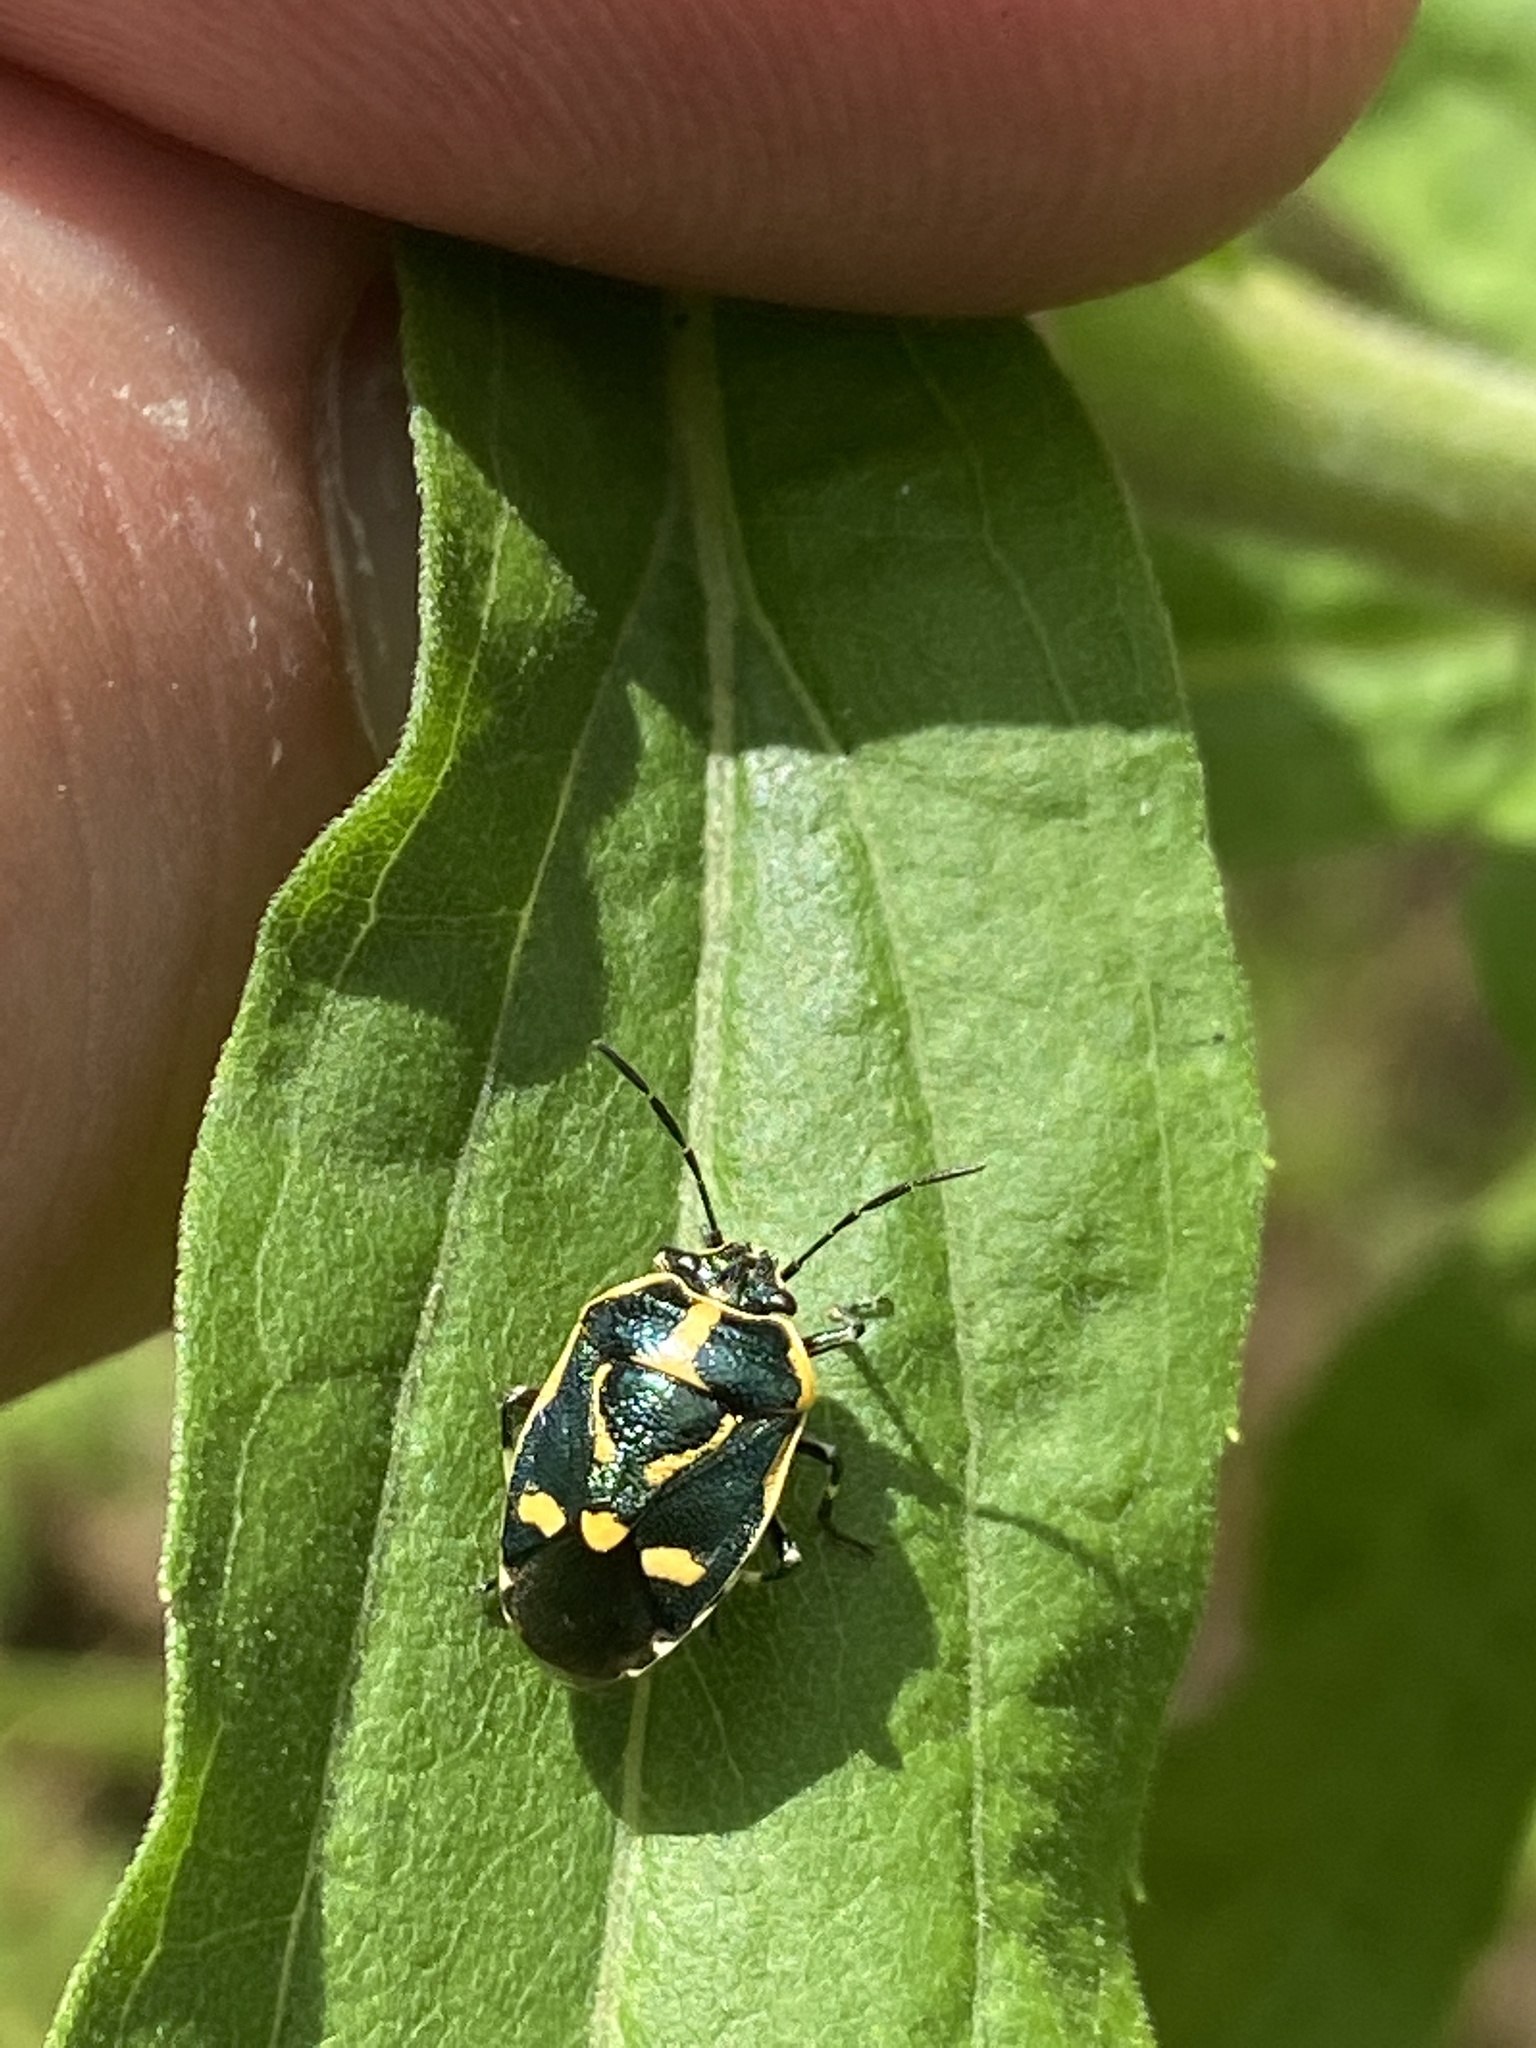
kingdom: Animalia
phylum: Arthropoda
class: Insecta
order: Hemiptera
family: Pentatomidae
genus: Eurydema
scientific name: Eurydema oleracea
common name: Cabbage bug
